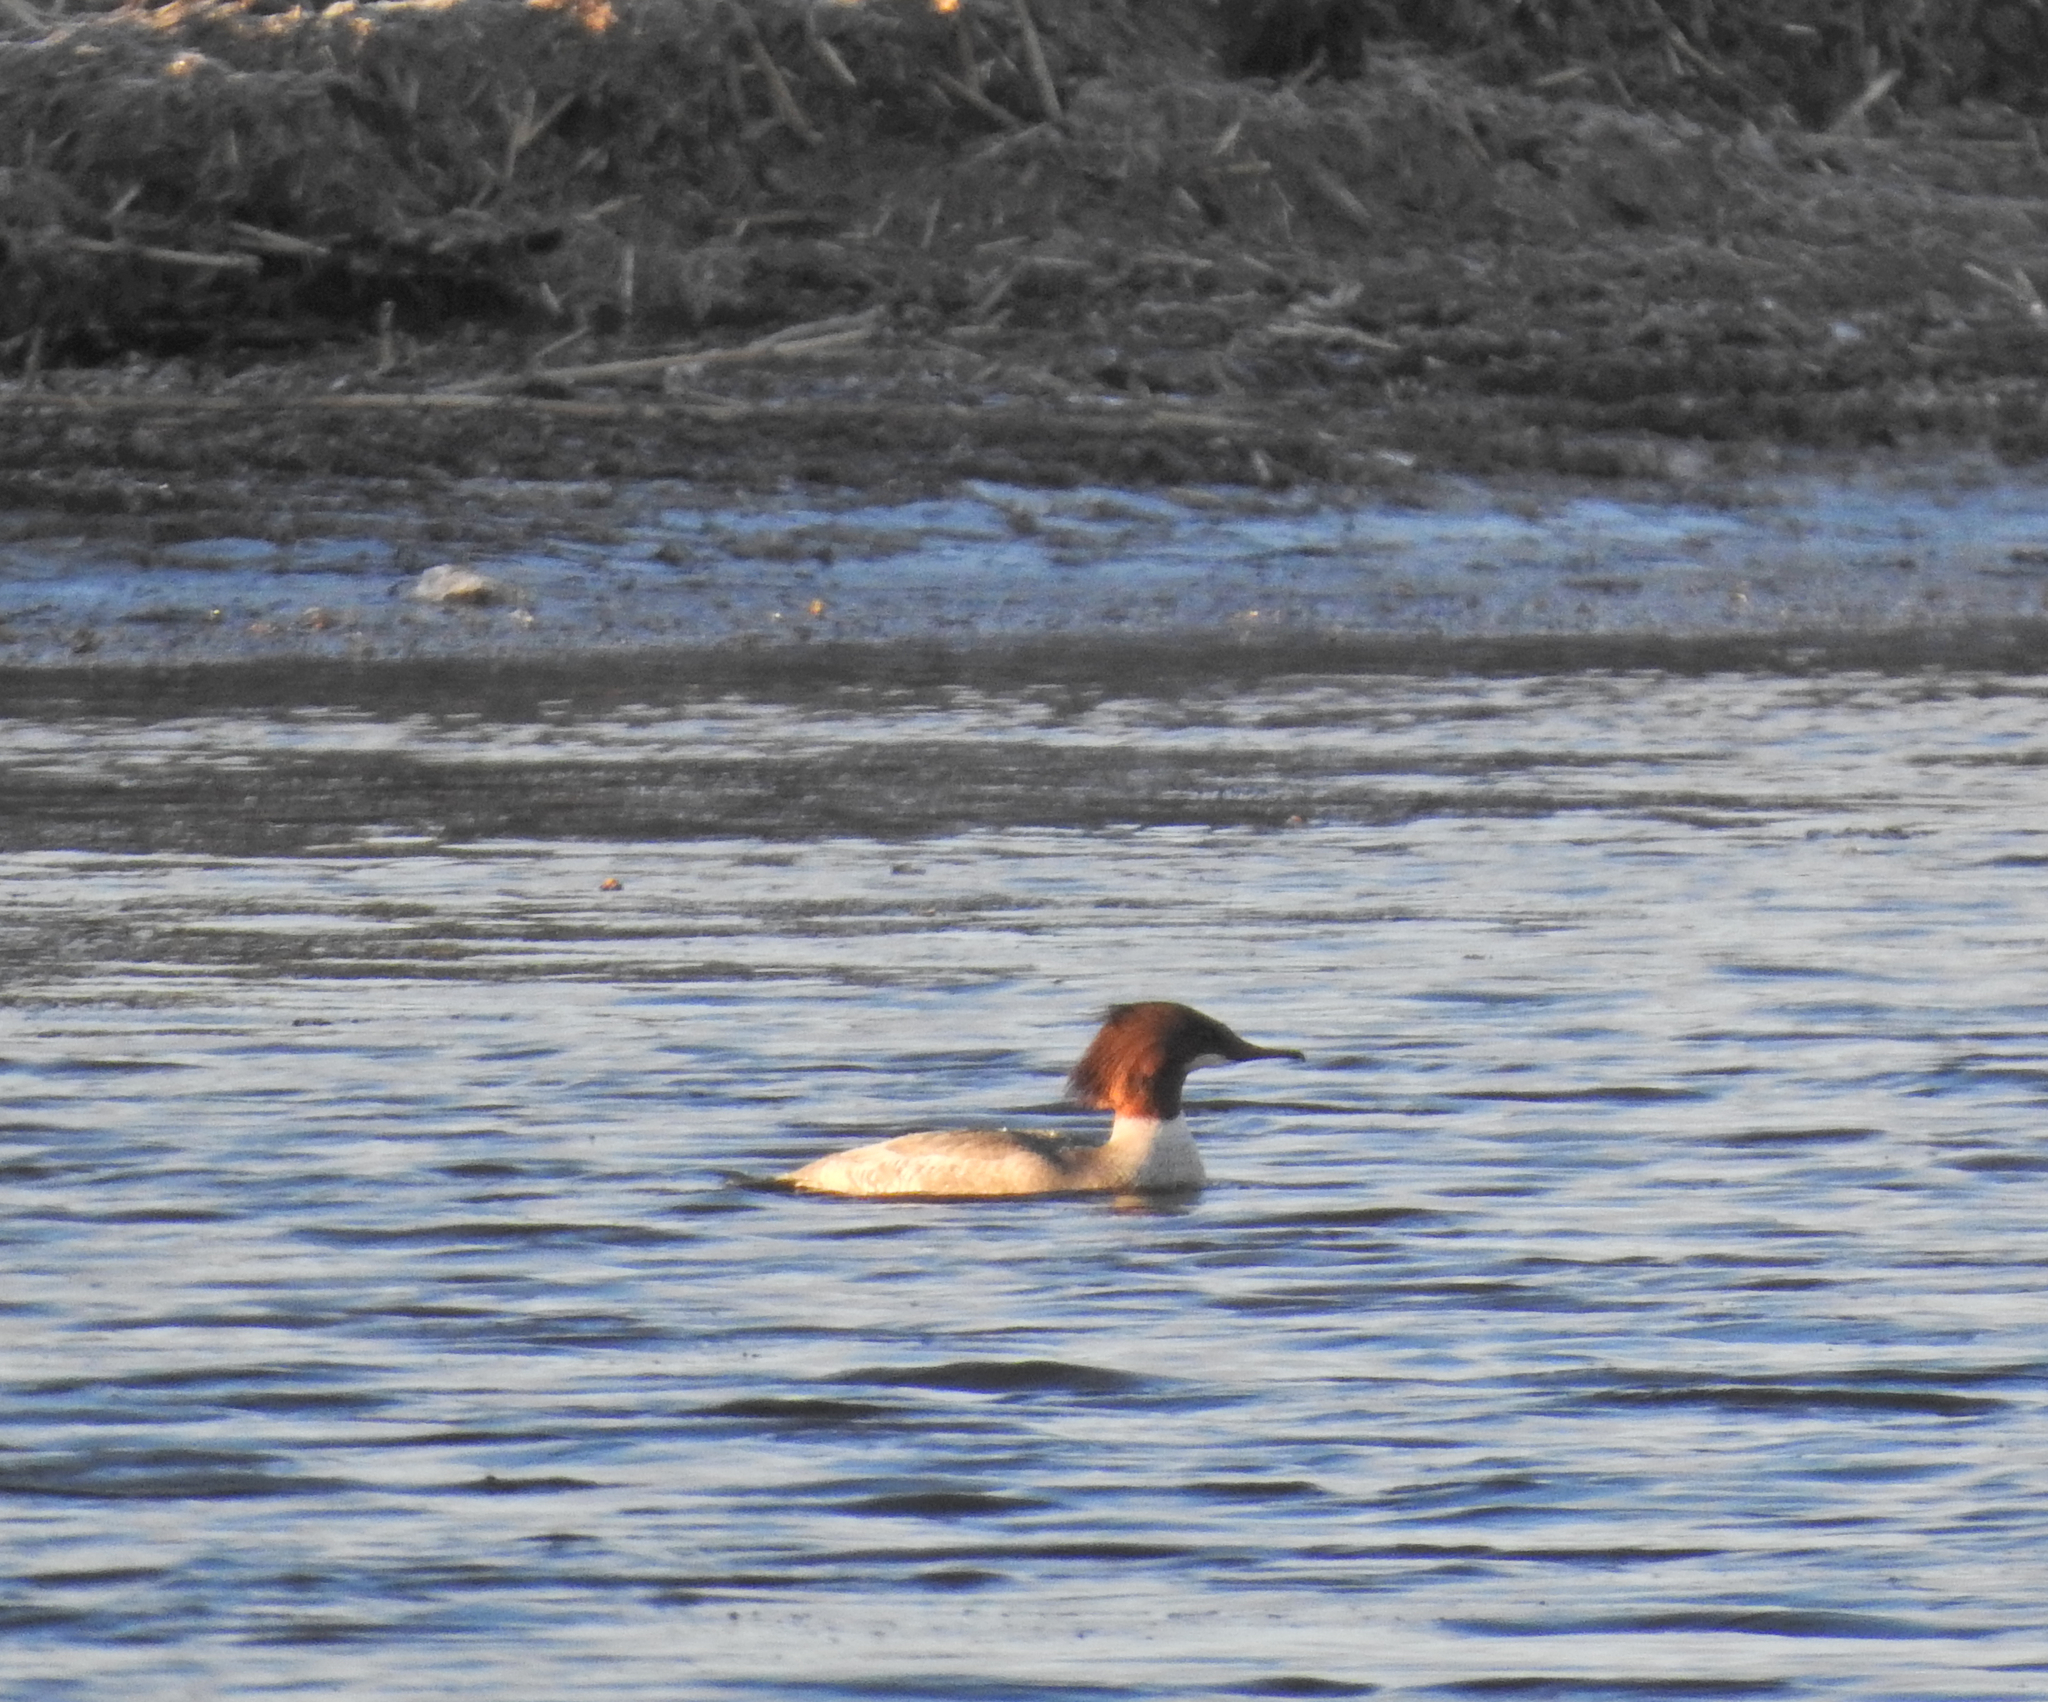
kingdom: Animalia
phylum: Chordata
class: Aves
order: Anseriformes
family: Anatidae
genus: Mergus
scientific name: Mergus merganser
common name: Common merganser
